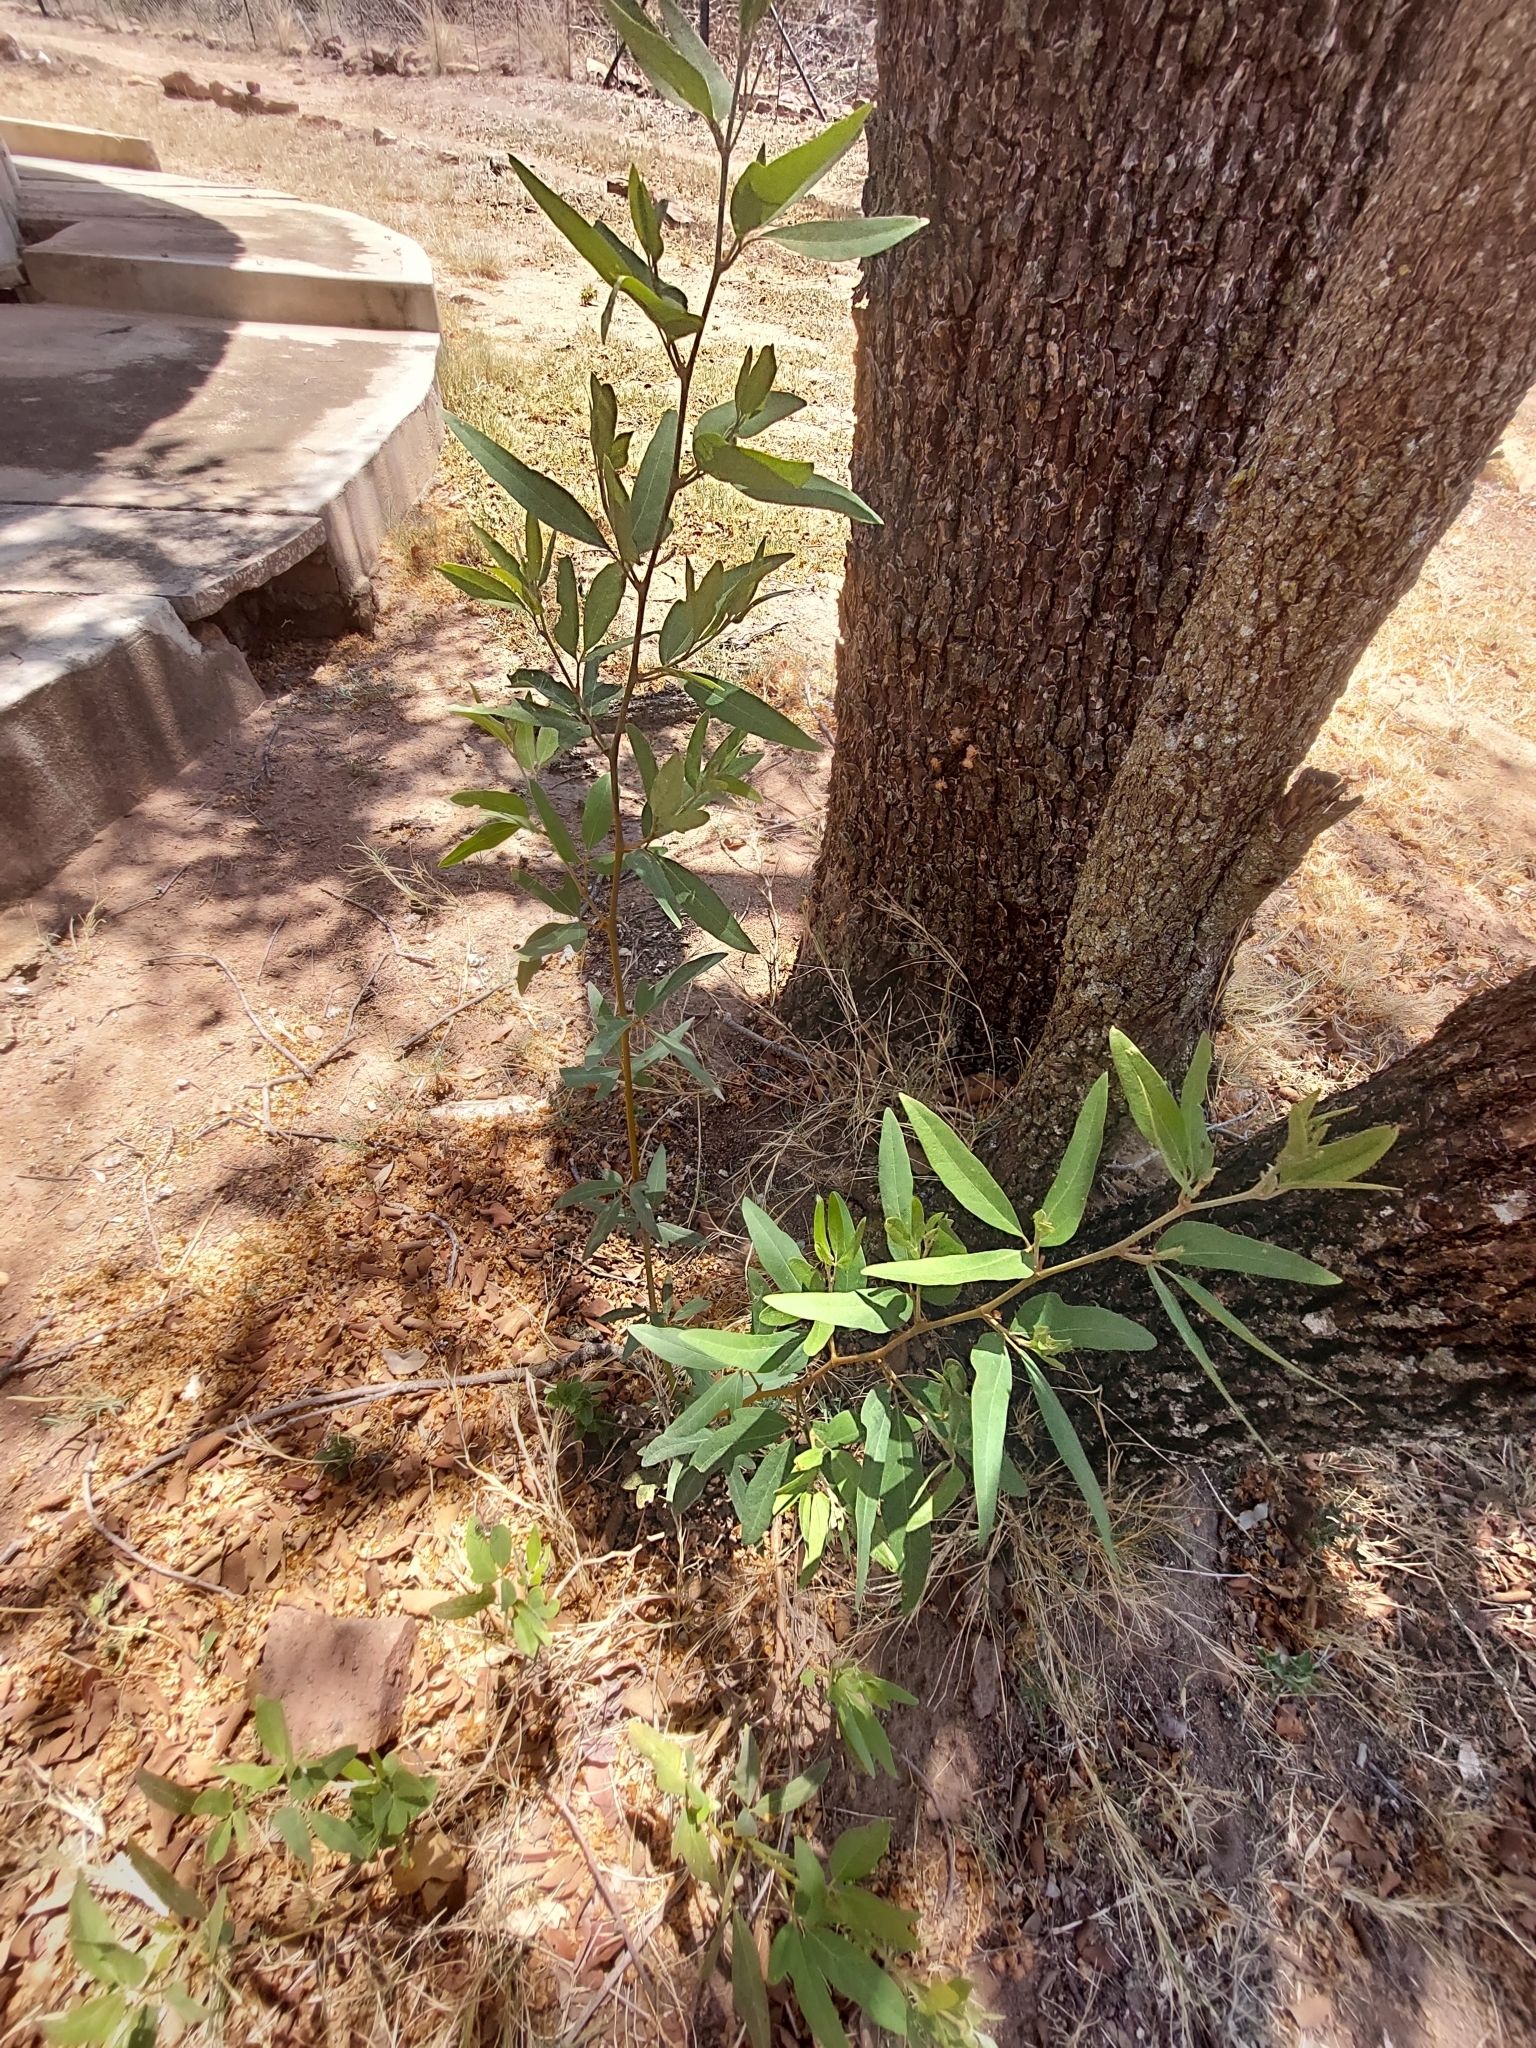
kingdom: Plantae
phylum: Tracheophyta
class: Magnoliopsida
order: Vitales
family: Vitaceae
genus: Rhoicissus
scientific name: Rhoicissus revoilii
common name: Bushveld grape
